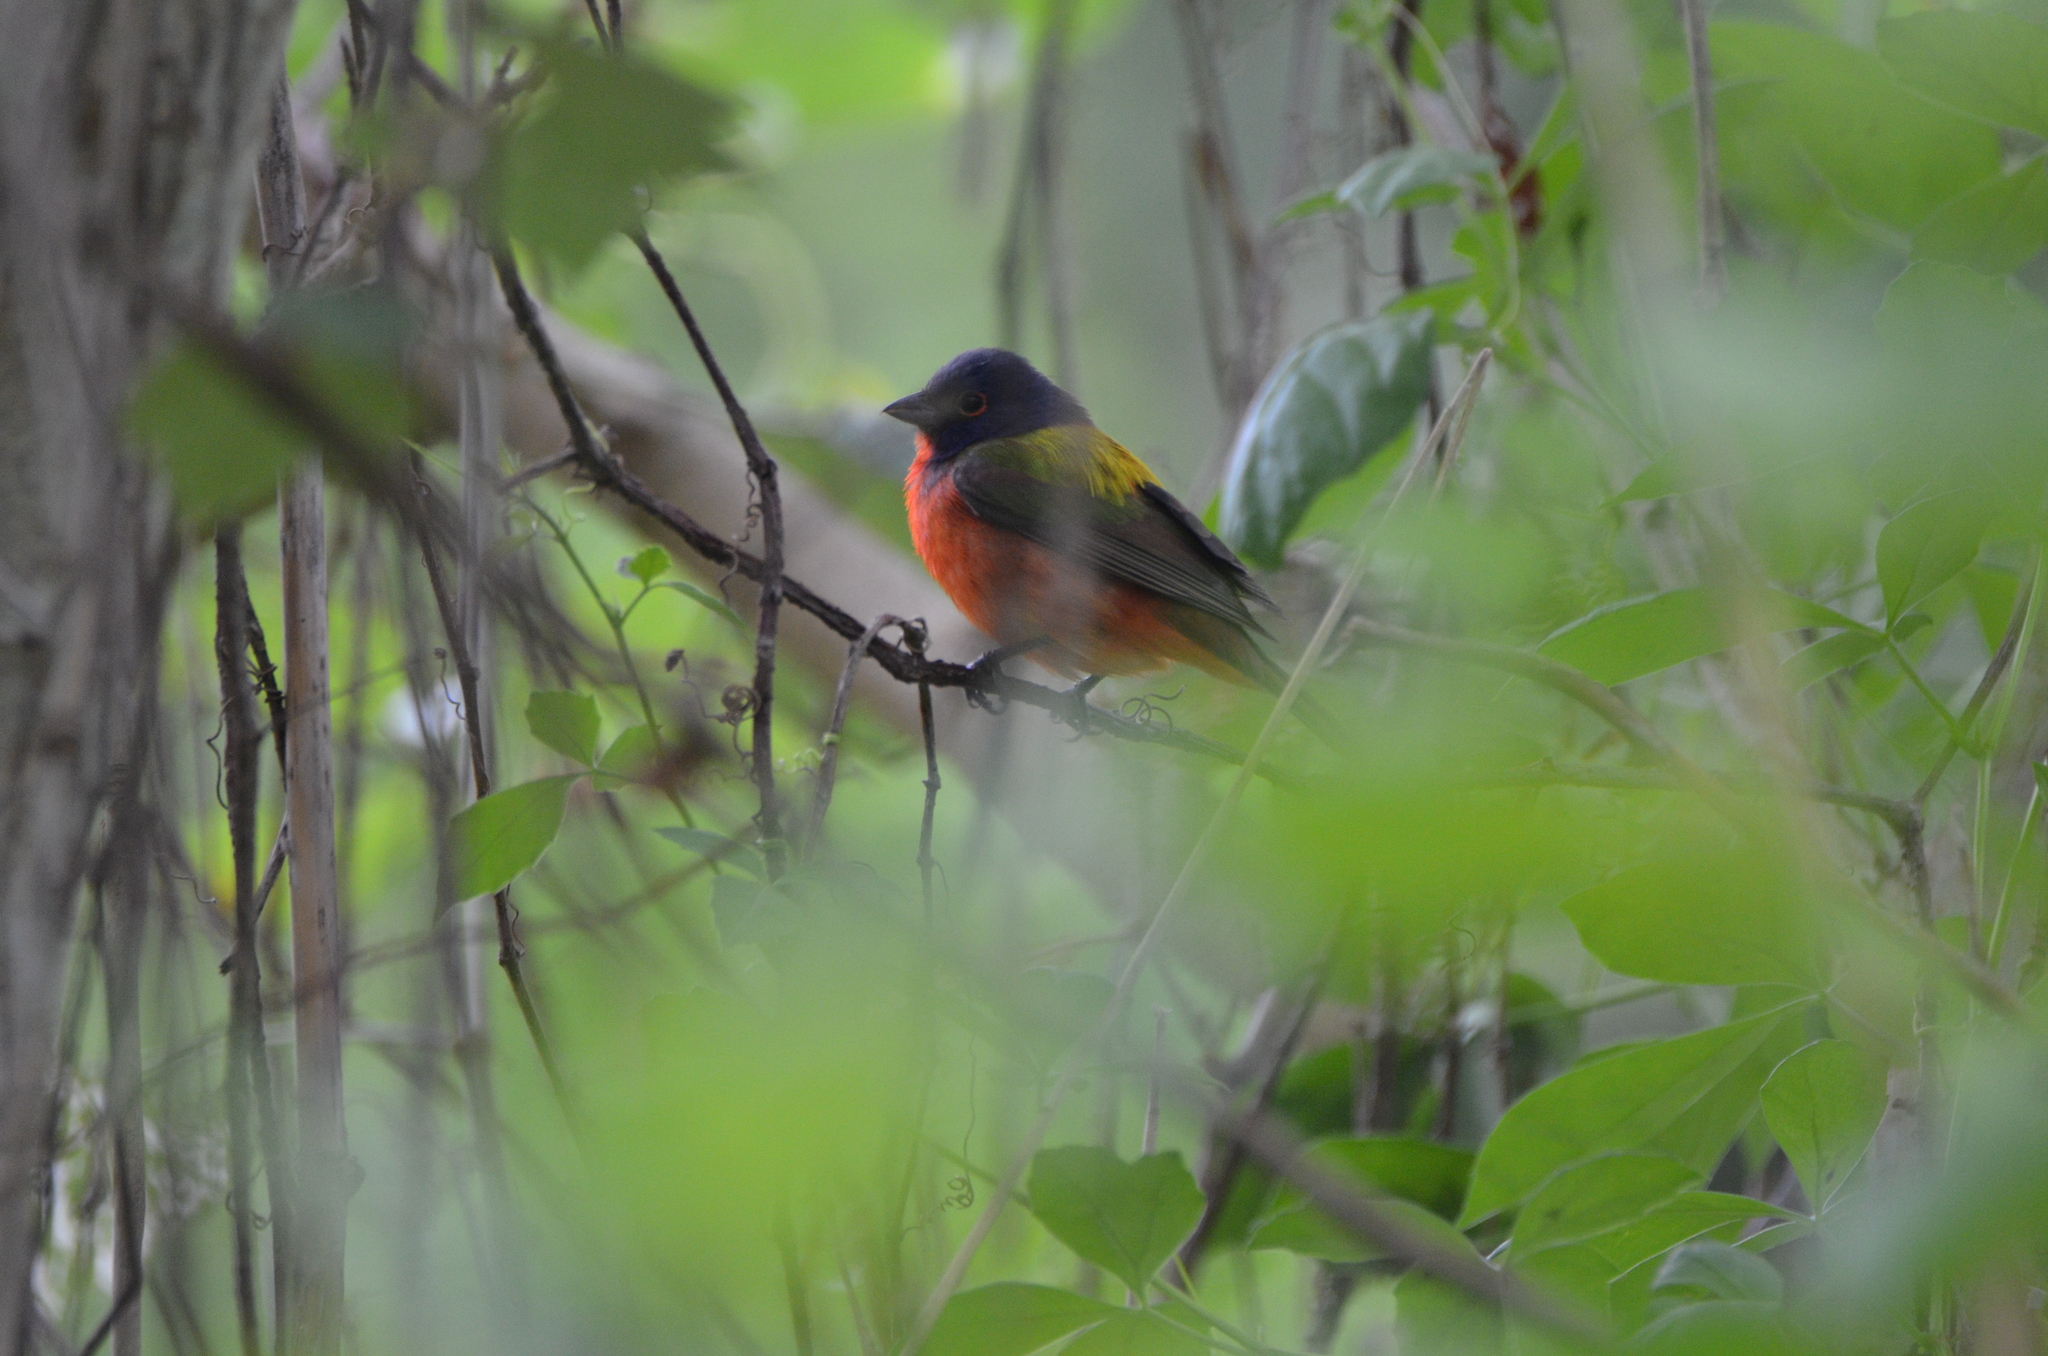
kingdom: Animalia
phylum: Chordata
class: Aves
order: Passeriformes
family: Cardinalidae
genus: Passerina
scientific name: Passerina ciris
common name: Painted bunting
